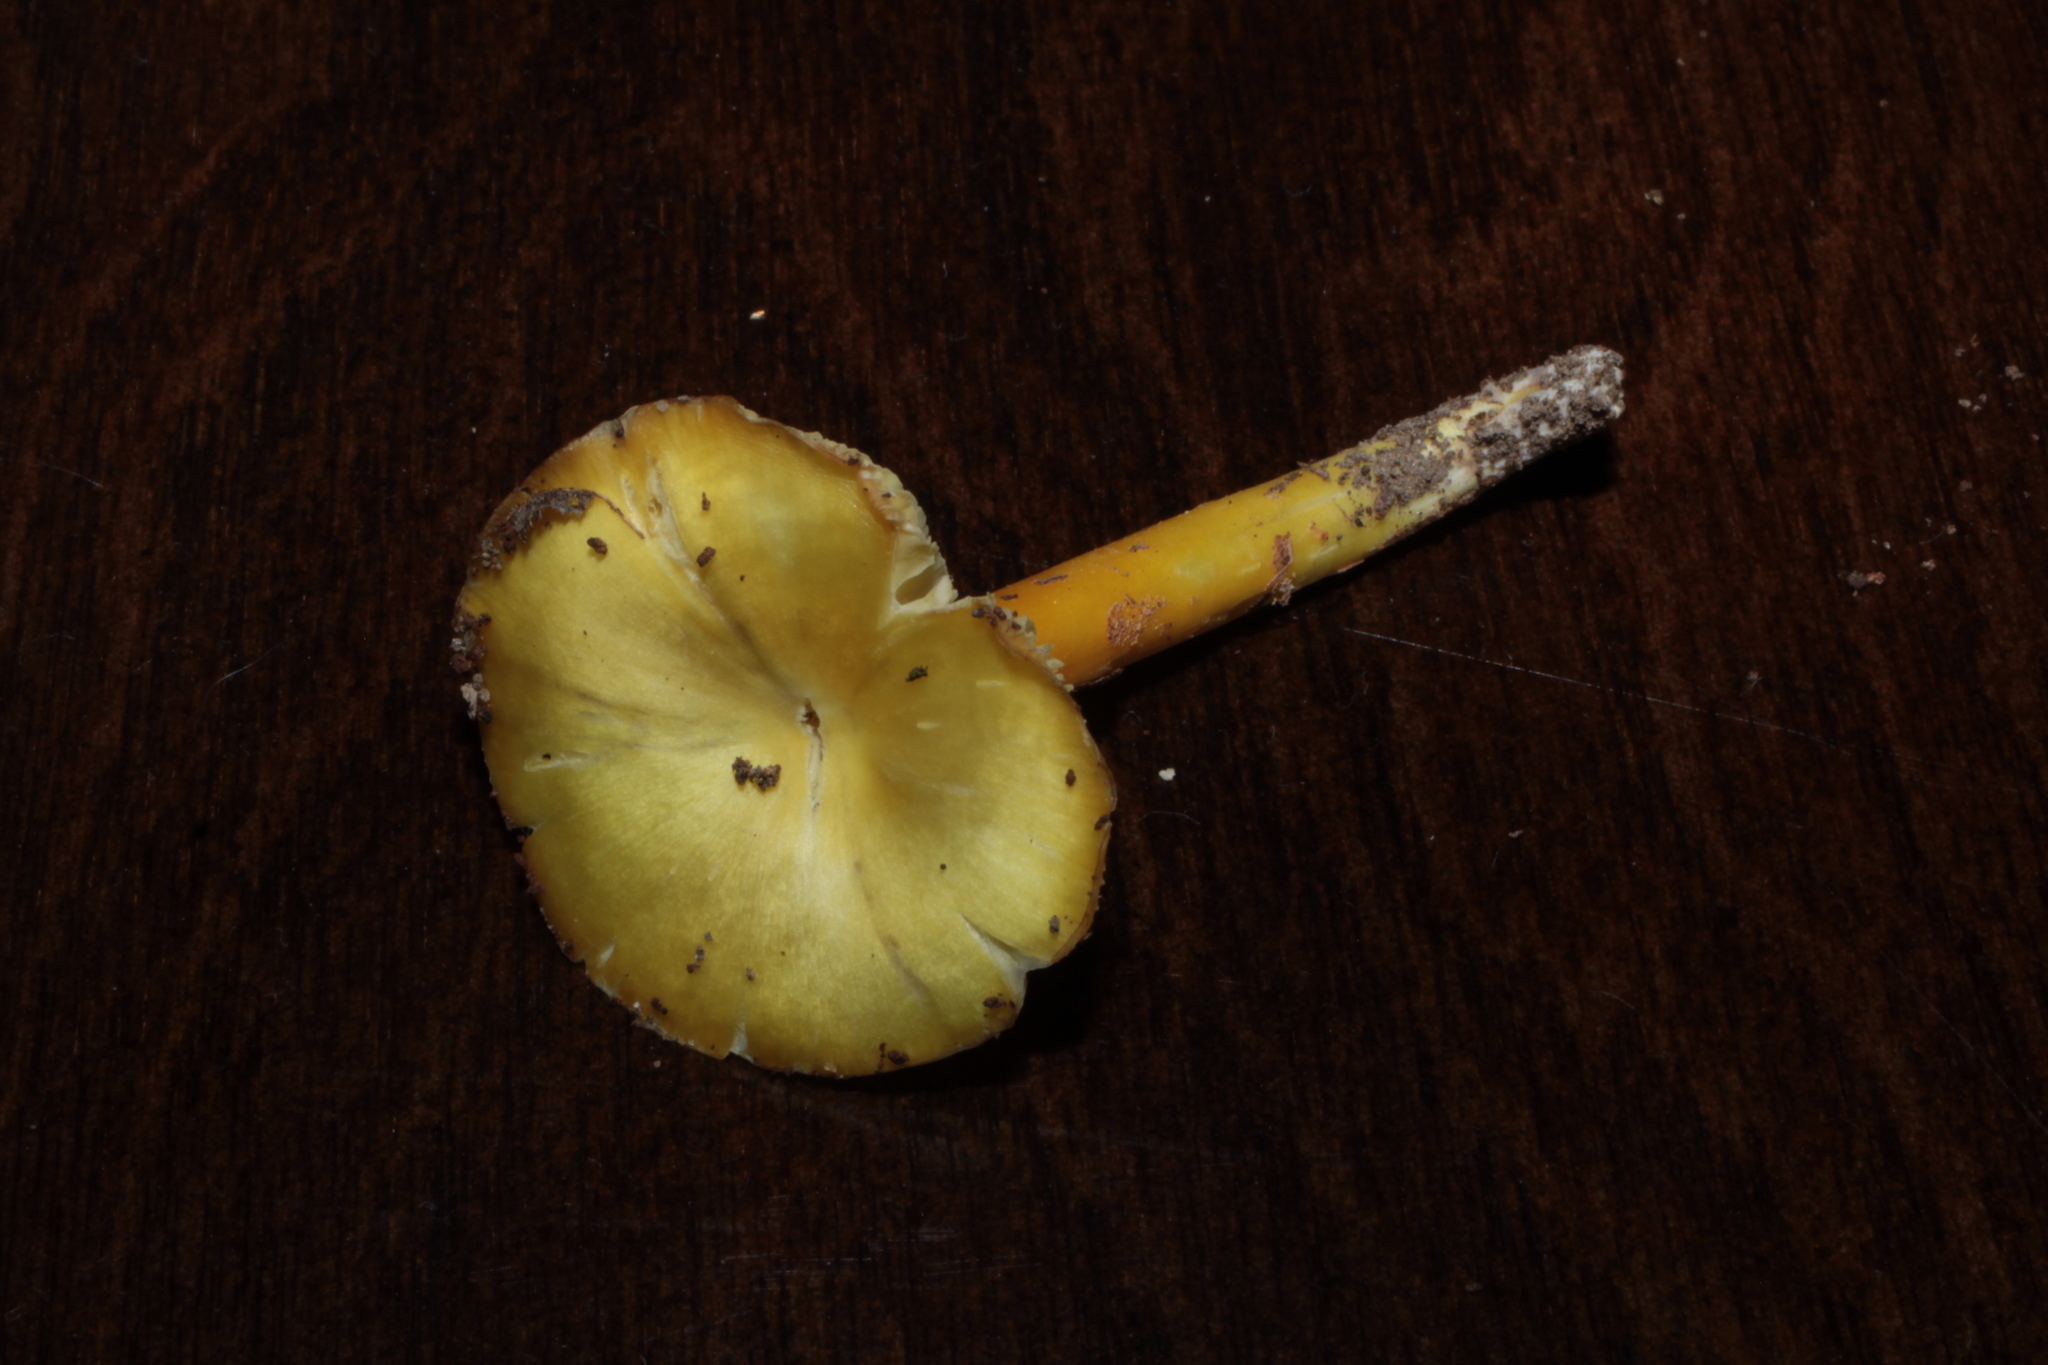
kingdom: Fungi
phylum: Basidiomycota
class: Agaricomycetes
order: Agaricales
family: Hygrophoraceae
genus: Hygrocybe
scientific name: Hygrocybe flavescens
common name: Golden waxy cap
